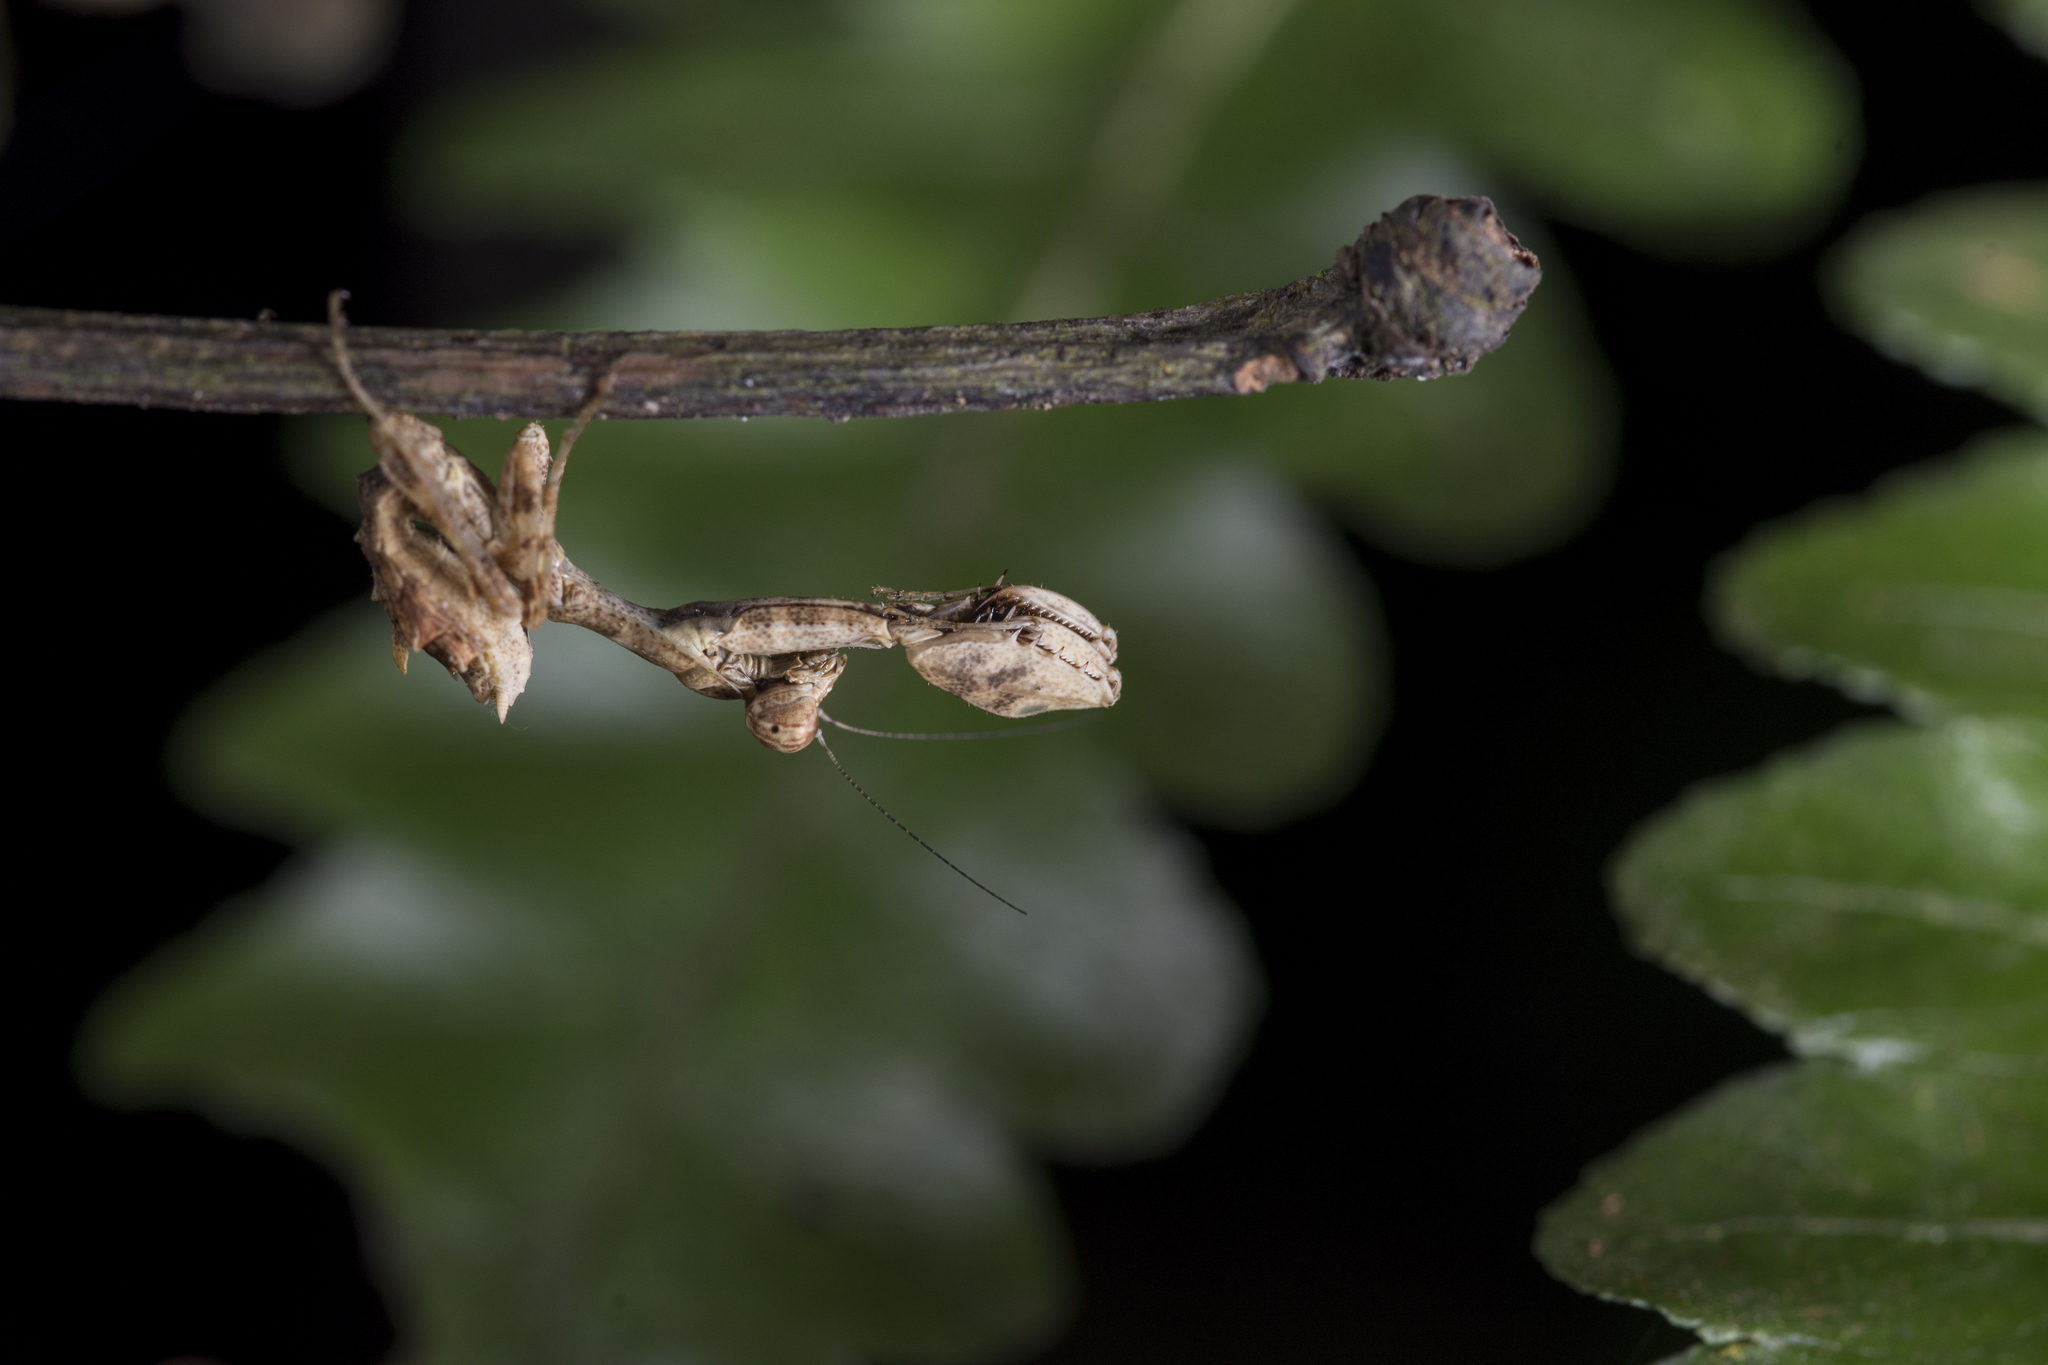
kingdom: Animalia
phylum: Arthropoda
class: Insecta
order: Mantodea
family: Hymenopodidae
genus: Acromantis
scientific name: Acromantis japonica
